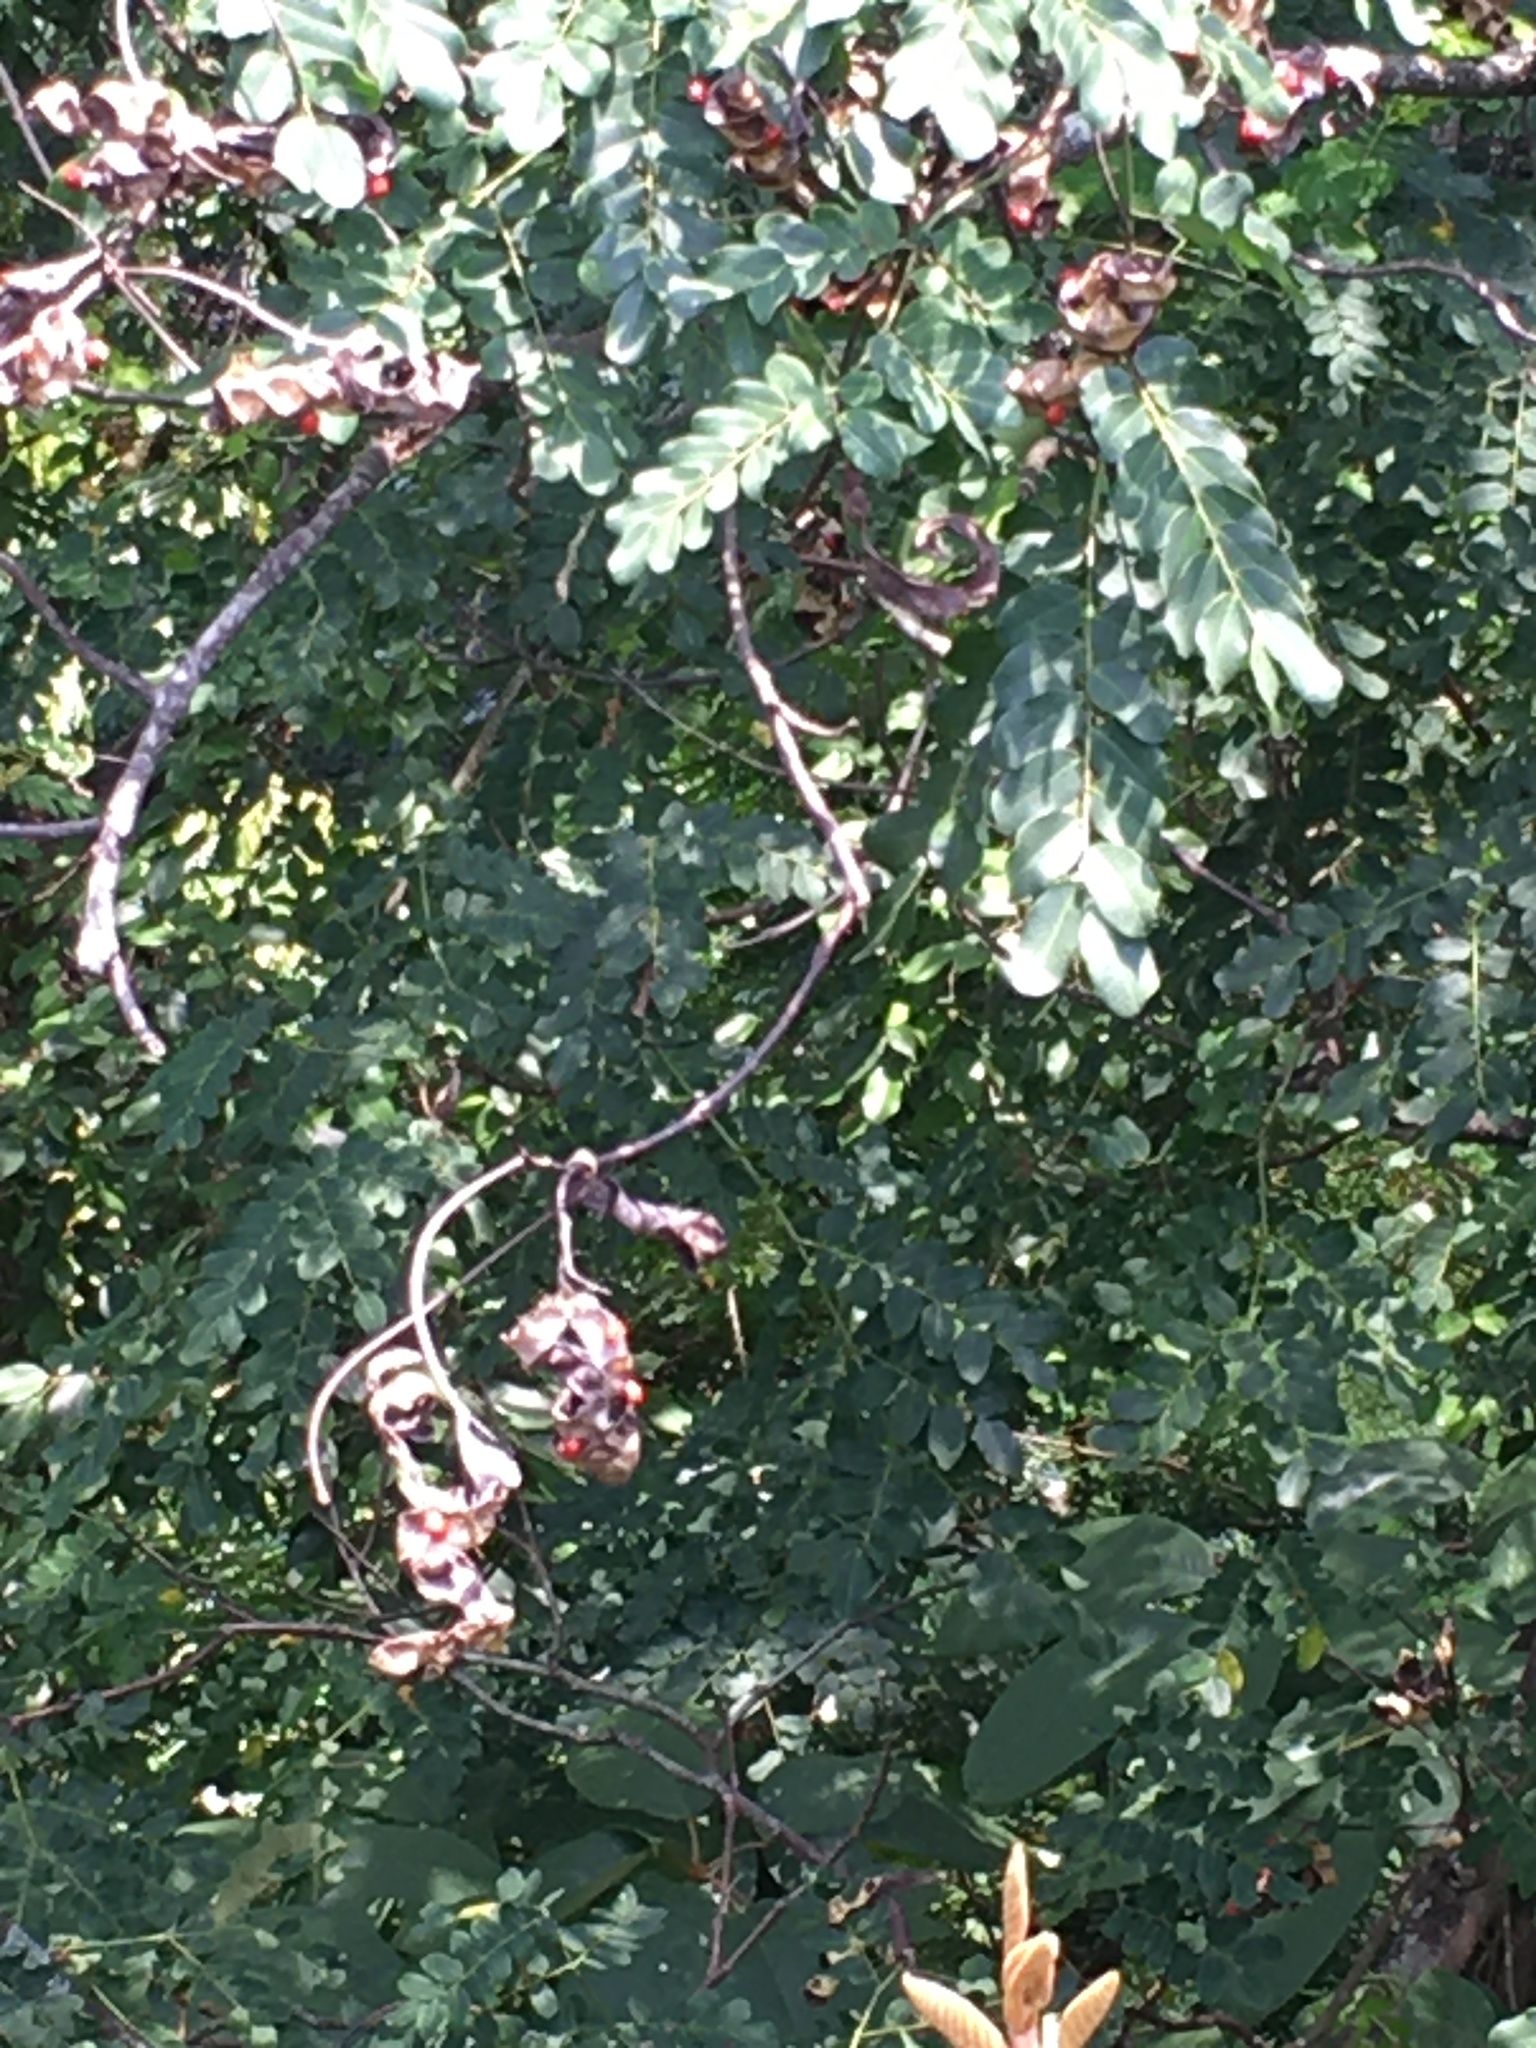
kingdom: Plantae
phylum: Tracheophyta
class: Magnoliopsida
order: Fabales
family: Fabaceae
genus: Adenanthera
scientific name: Adenanthera pavonina
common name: Red beadtree
